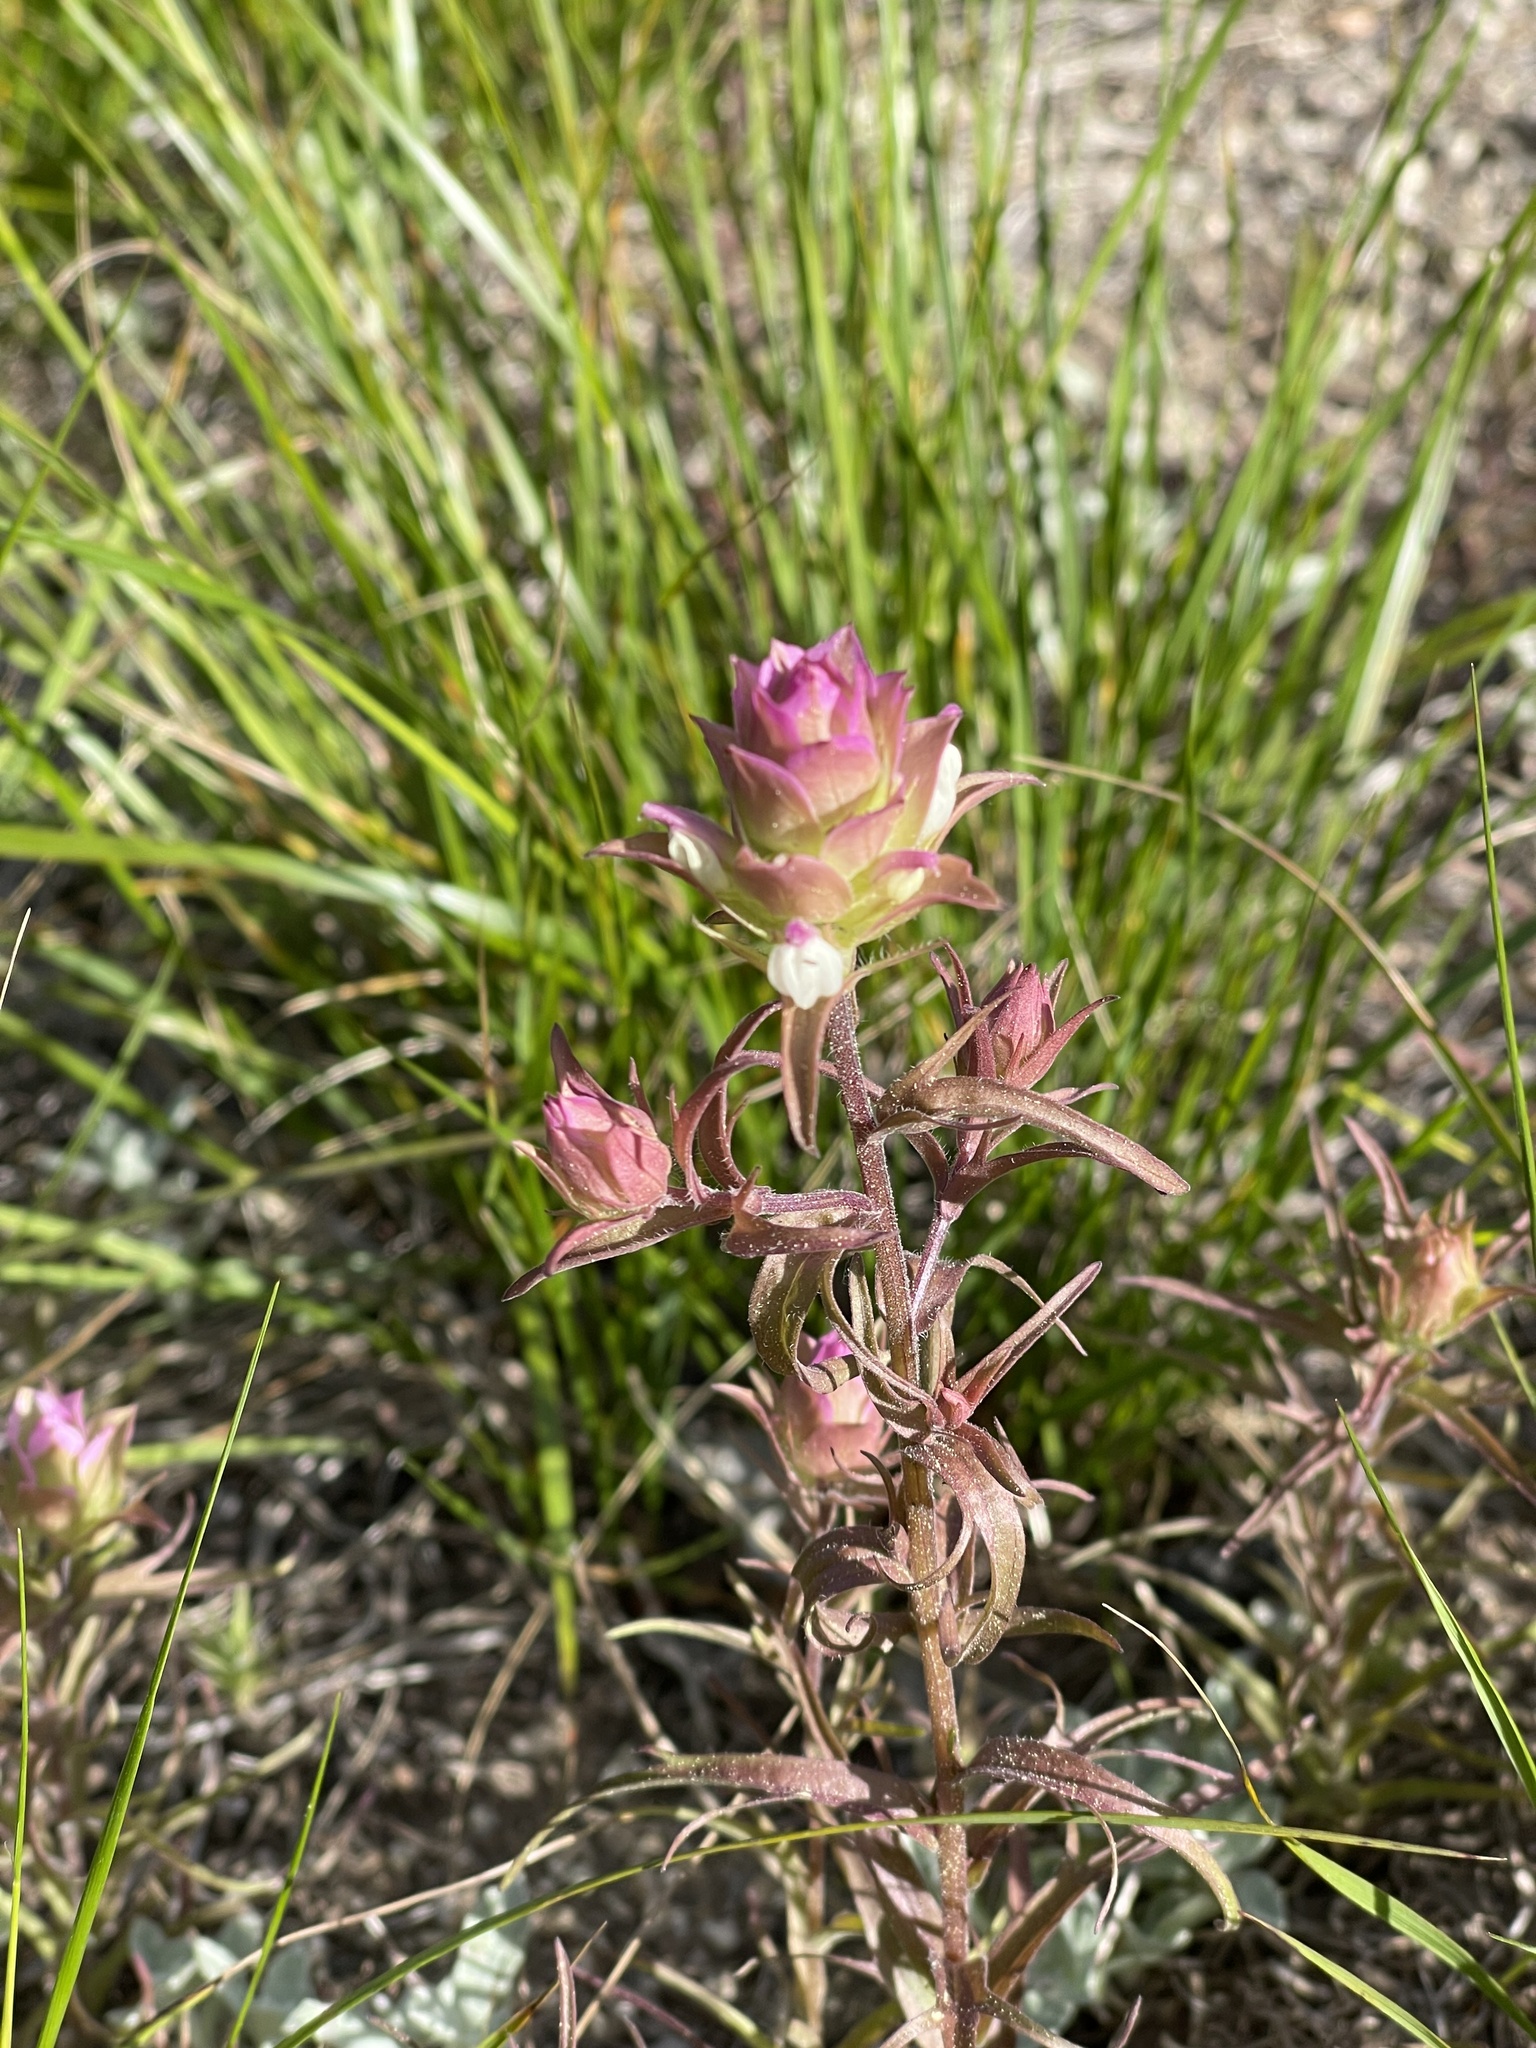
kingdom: Plantae
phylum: Tracheophyta
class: Magnoliopsida
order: Lamiales
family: Orobanchaceae
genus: Orthocarpus
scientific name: Orthocarpus cuspidatus
